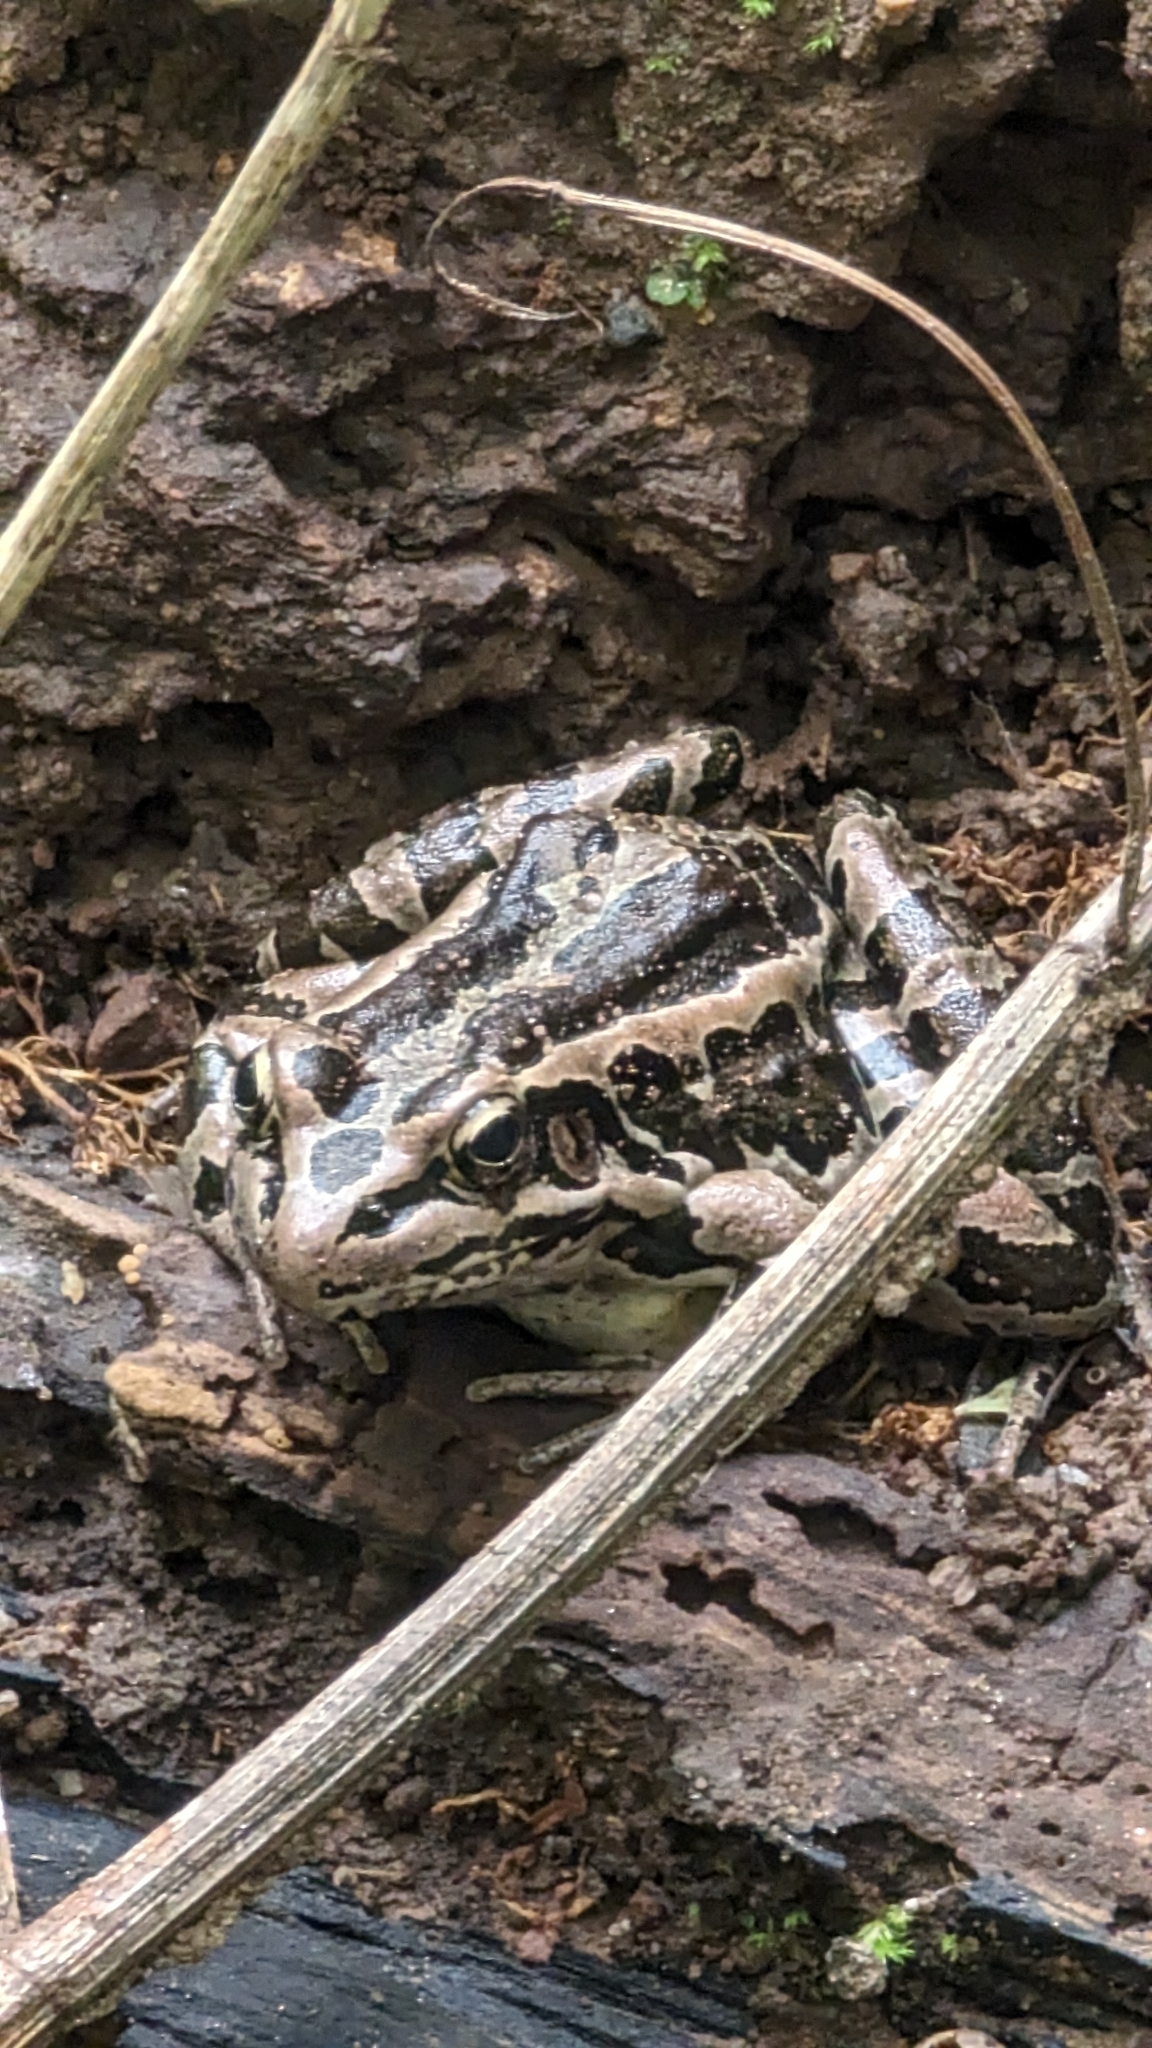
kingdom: Animalia
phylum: Chordata
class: Amphibia
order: Anura
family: Ranidae
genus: Lithobates
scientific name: Lithobates palustris
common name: Pickerel frog
